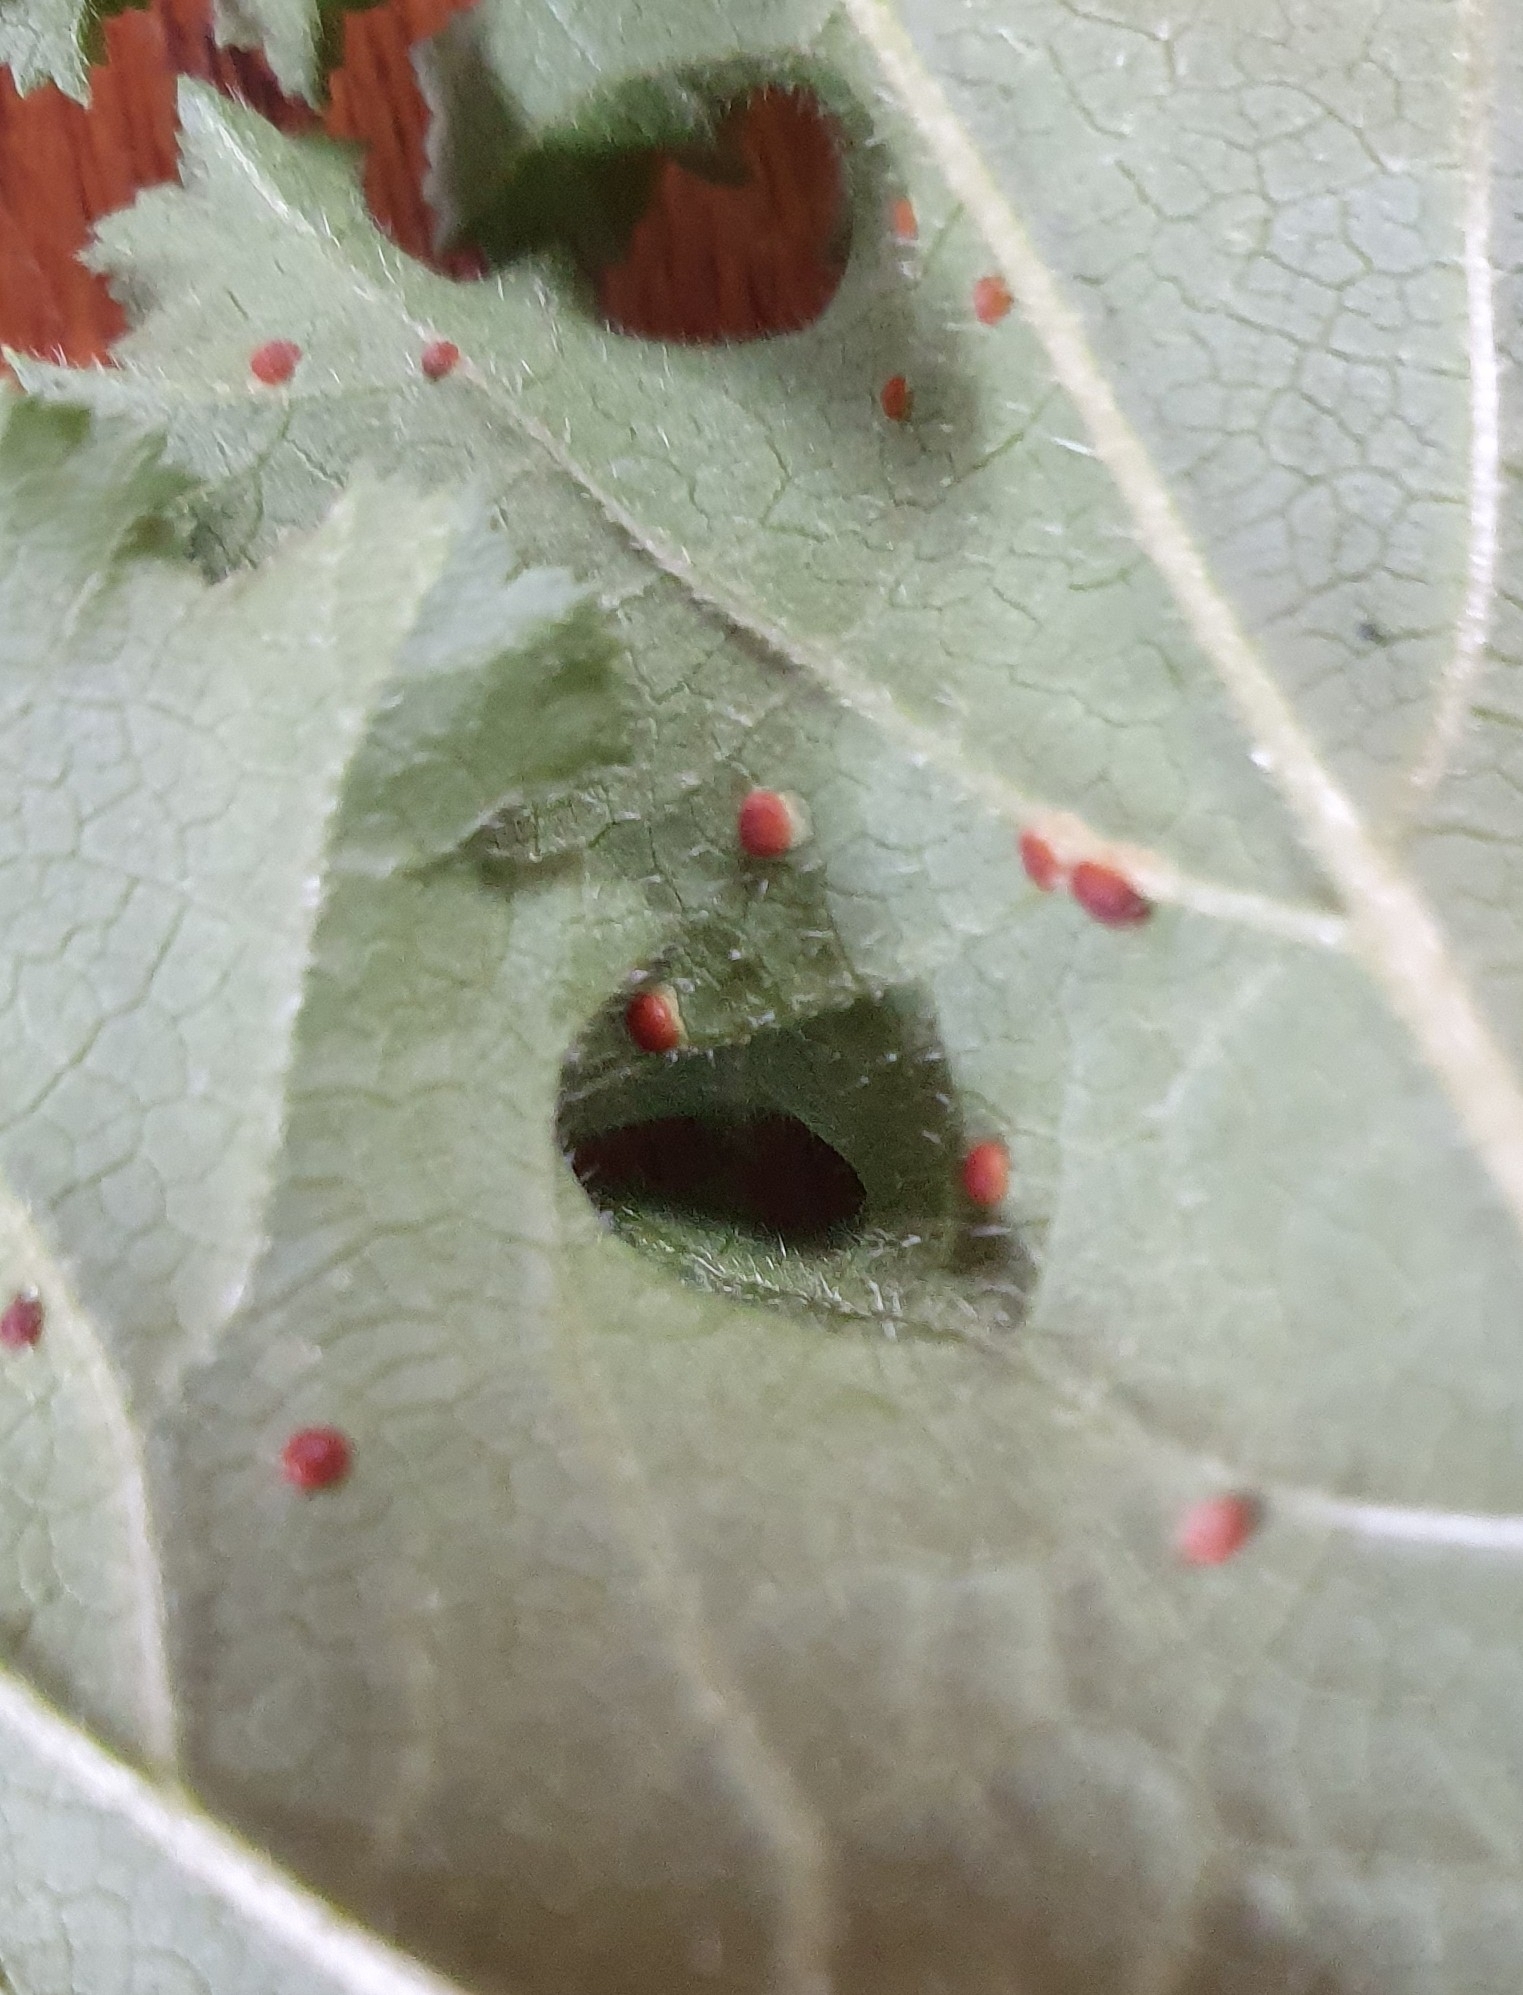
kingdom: Fungi
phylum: Basidiomycota
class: Pucciniomycetes
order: Pucciniales
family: Pucciniaceae
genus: Puccinia
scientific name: Puccinia malvacearum
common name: Hollyhock rust
